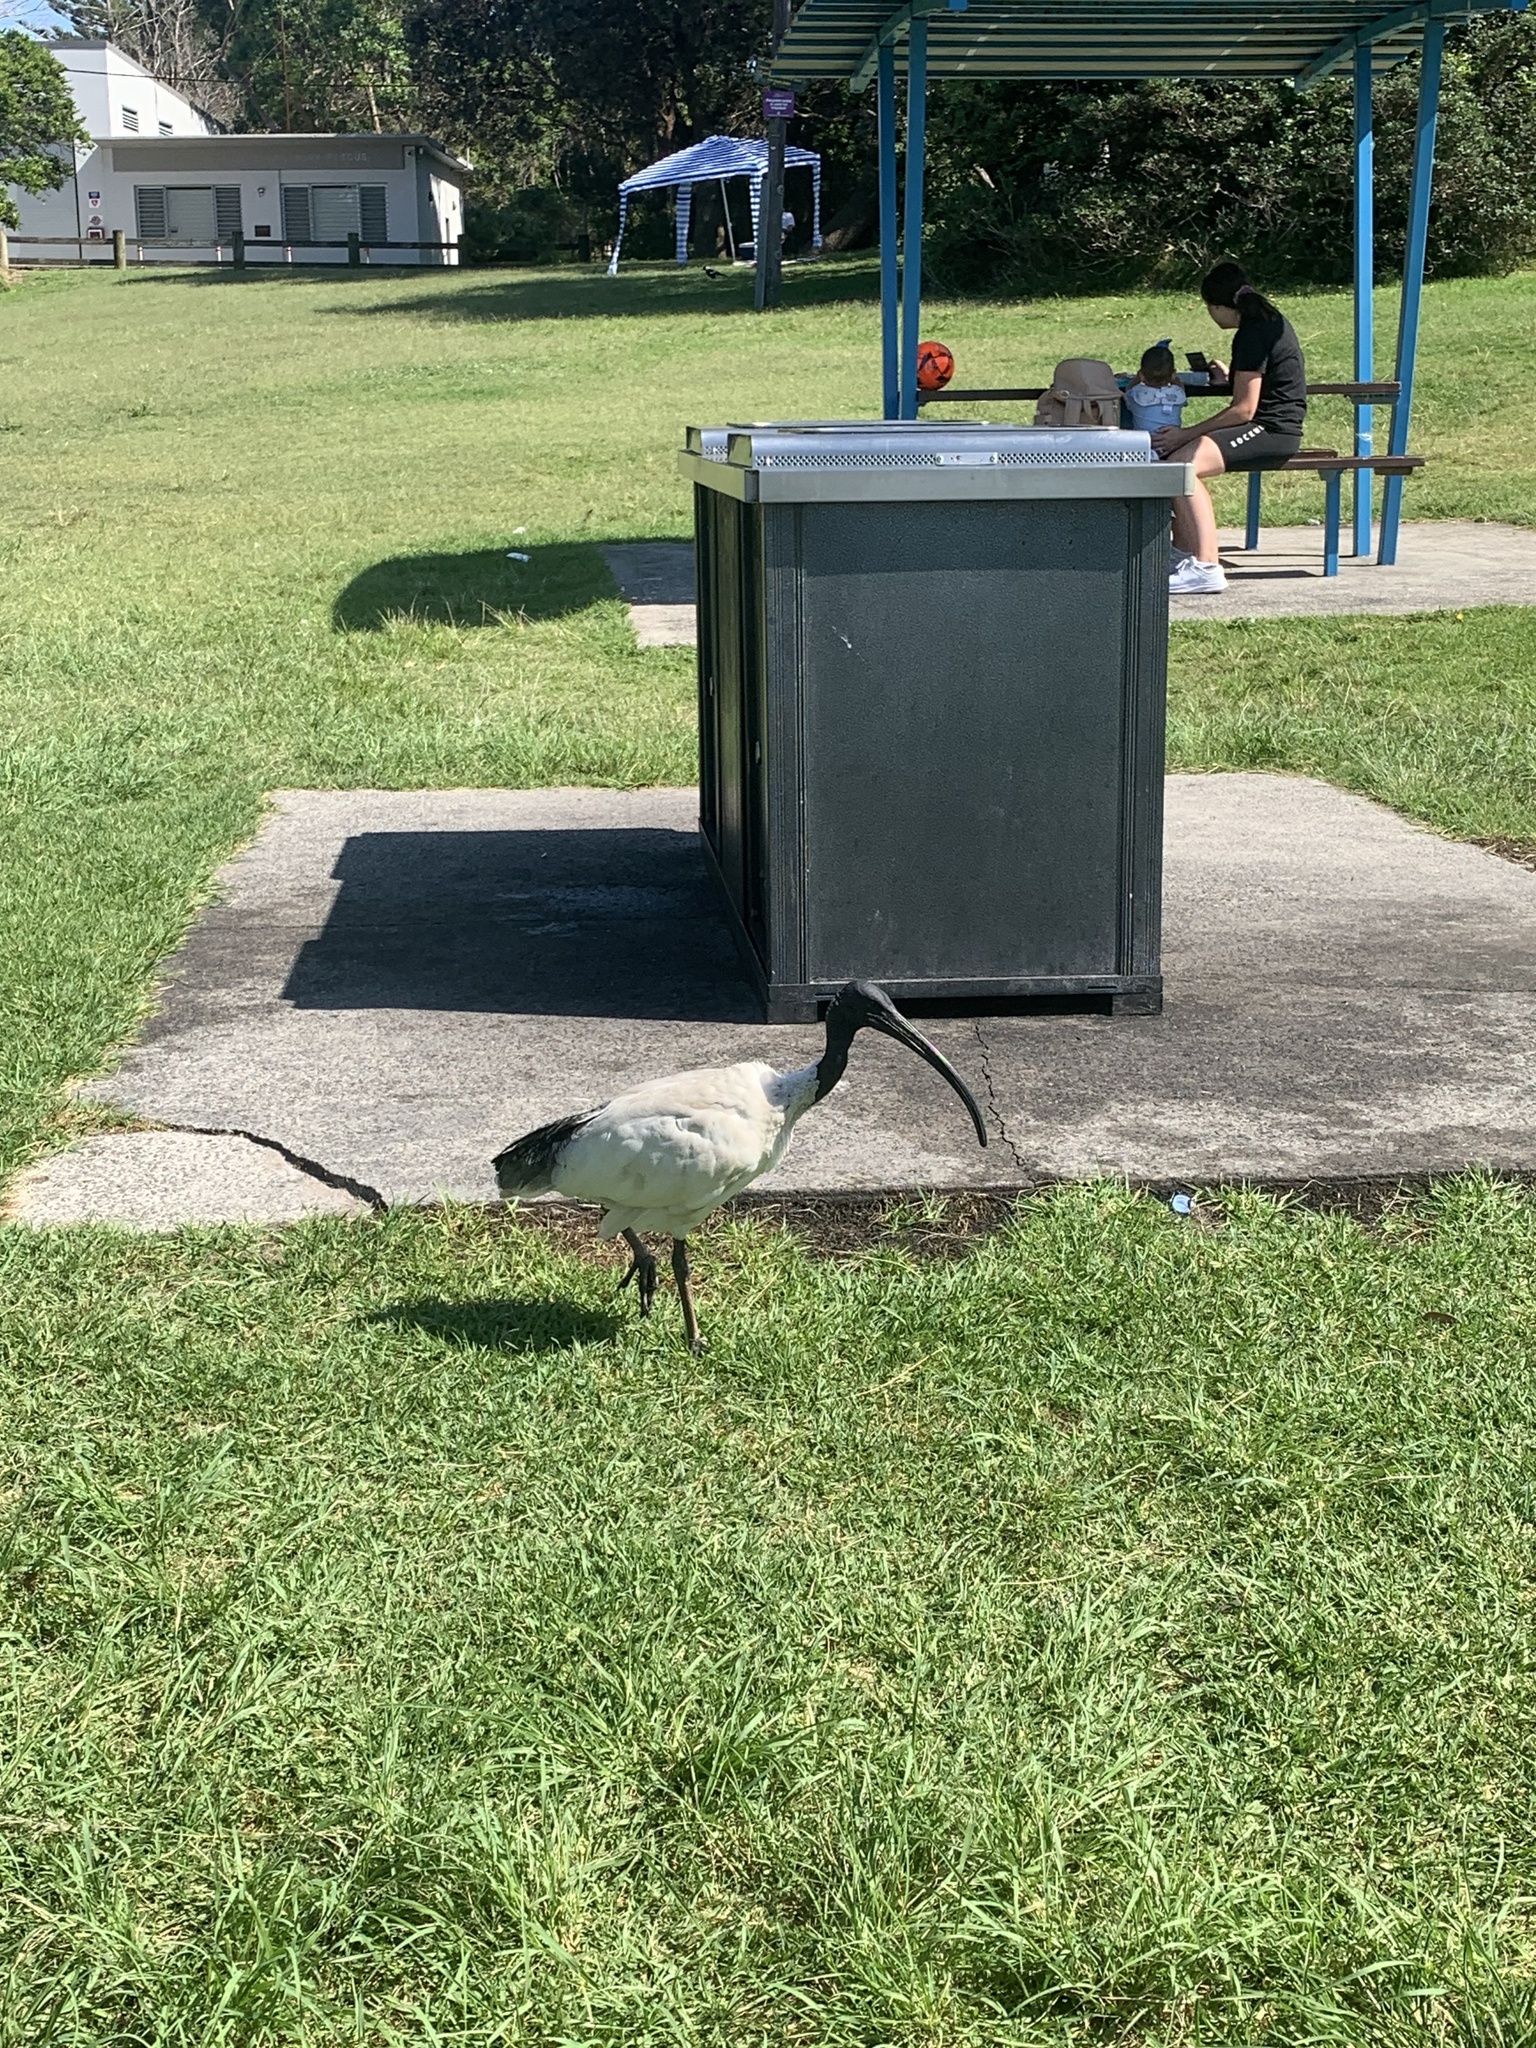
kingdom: Animalia
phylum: Chordata
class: Aves
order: Pelecaniformes
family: Threskiornithidae
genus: Threskiornis
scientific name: Threskiornis molucca
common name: Australian white ibis
